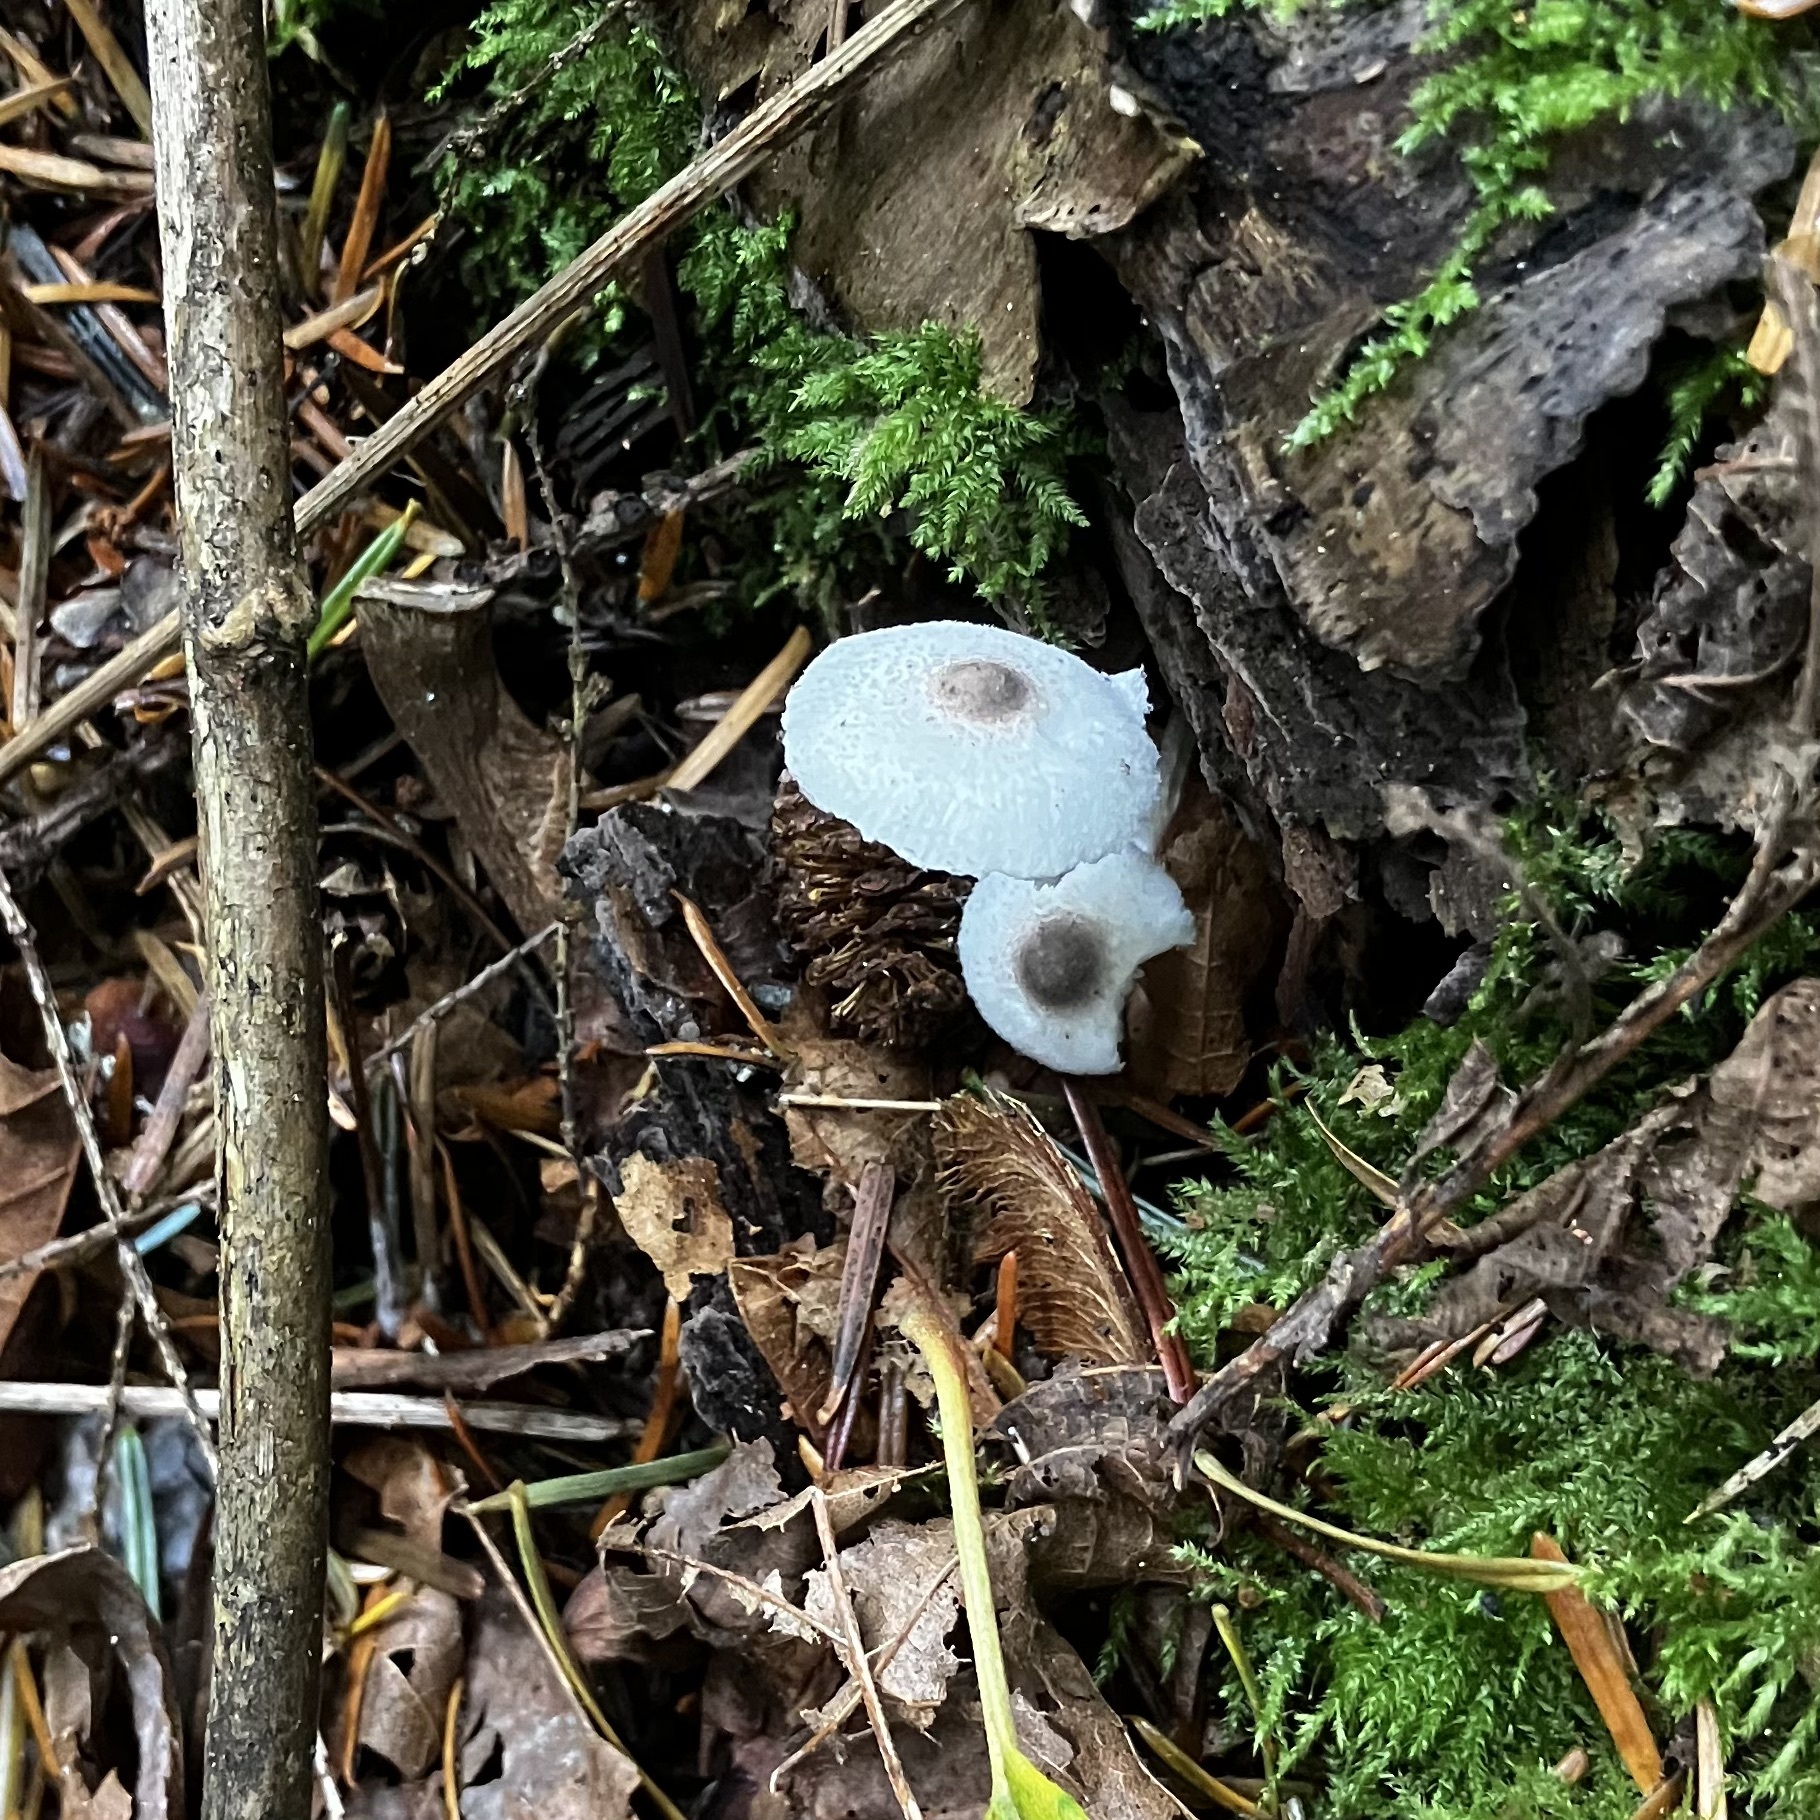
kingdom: Fungi
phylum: Basidiomycota
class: Agaricomycetes
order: Agaricales
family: Agaricaceae
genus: Leucocoprinus
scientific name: Leucocoprinus brebissonii
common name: Skullcap dapperling
